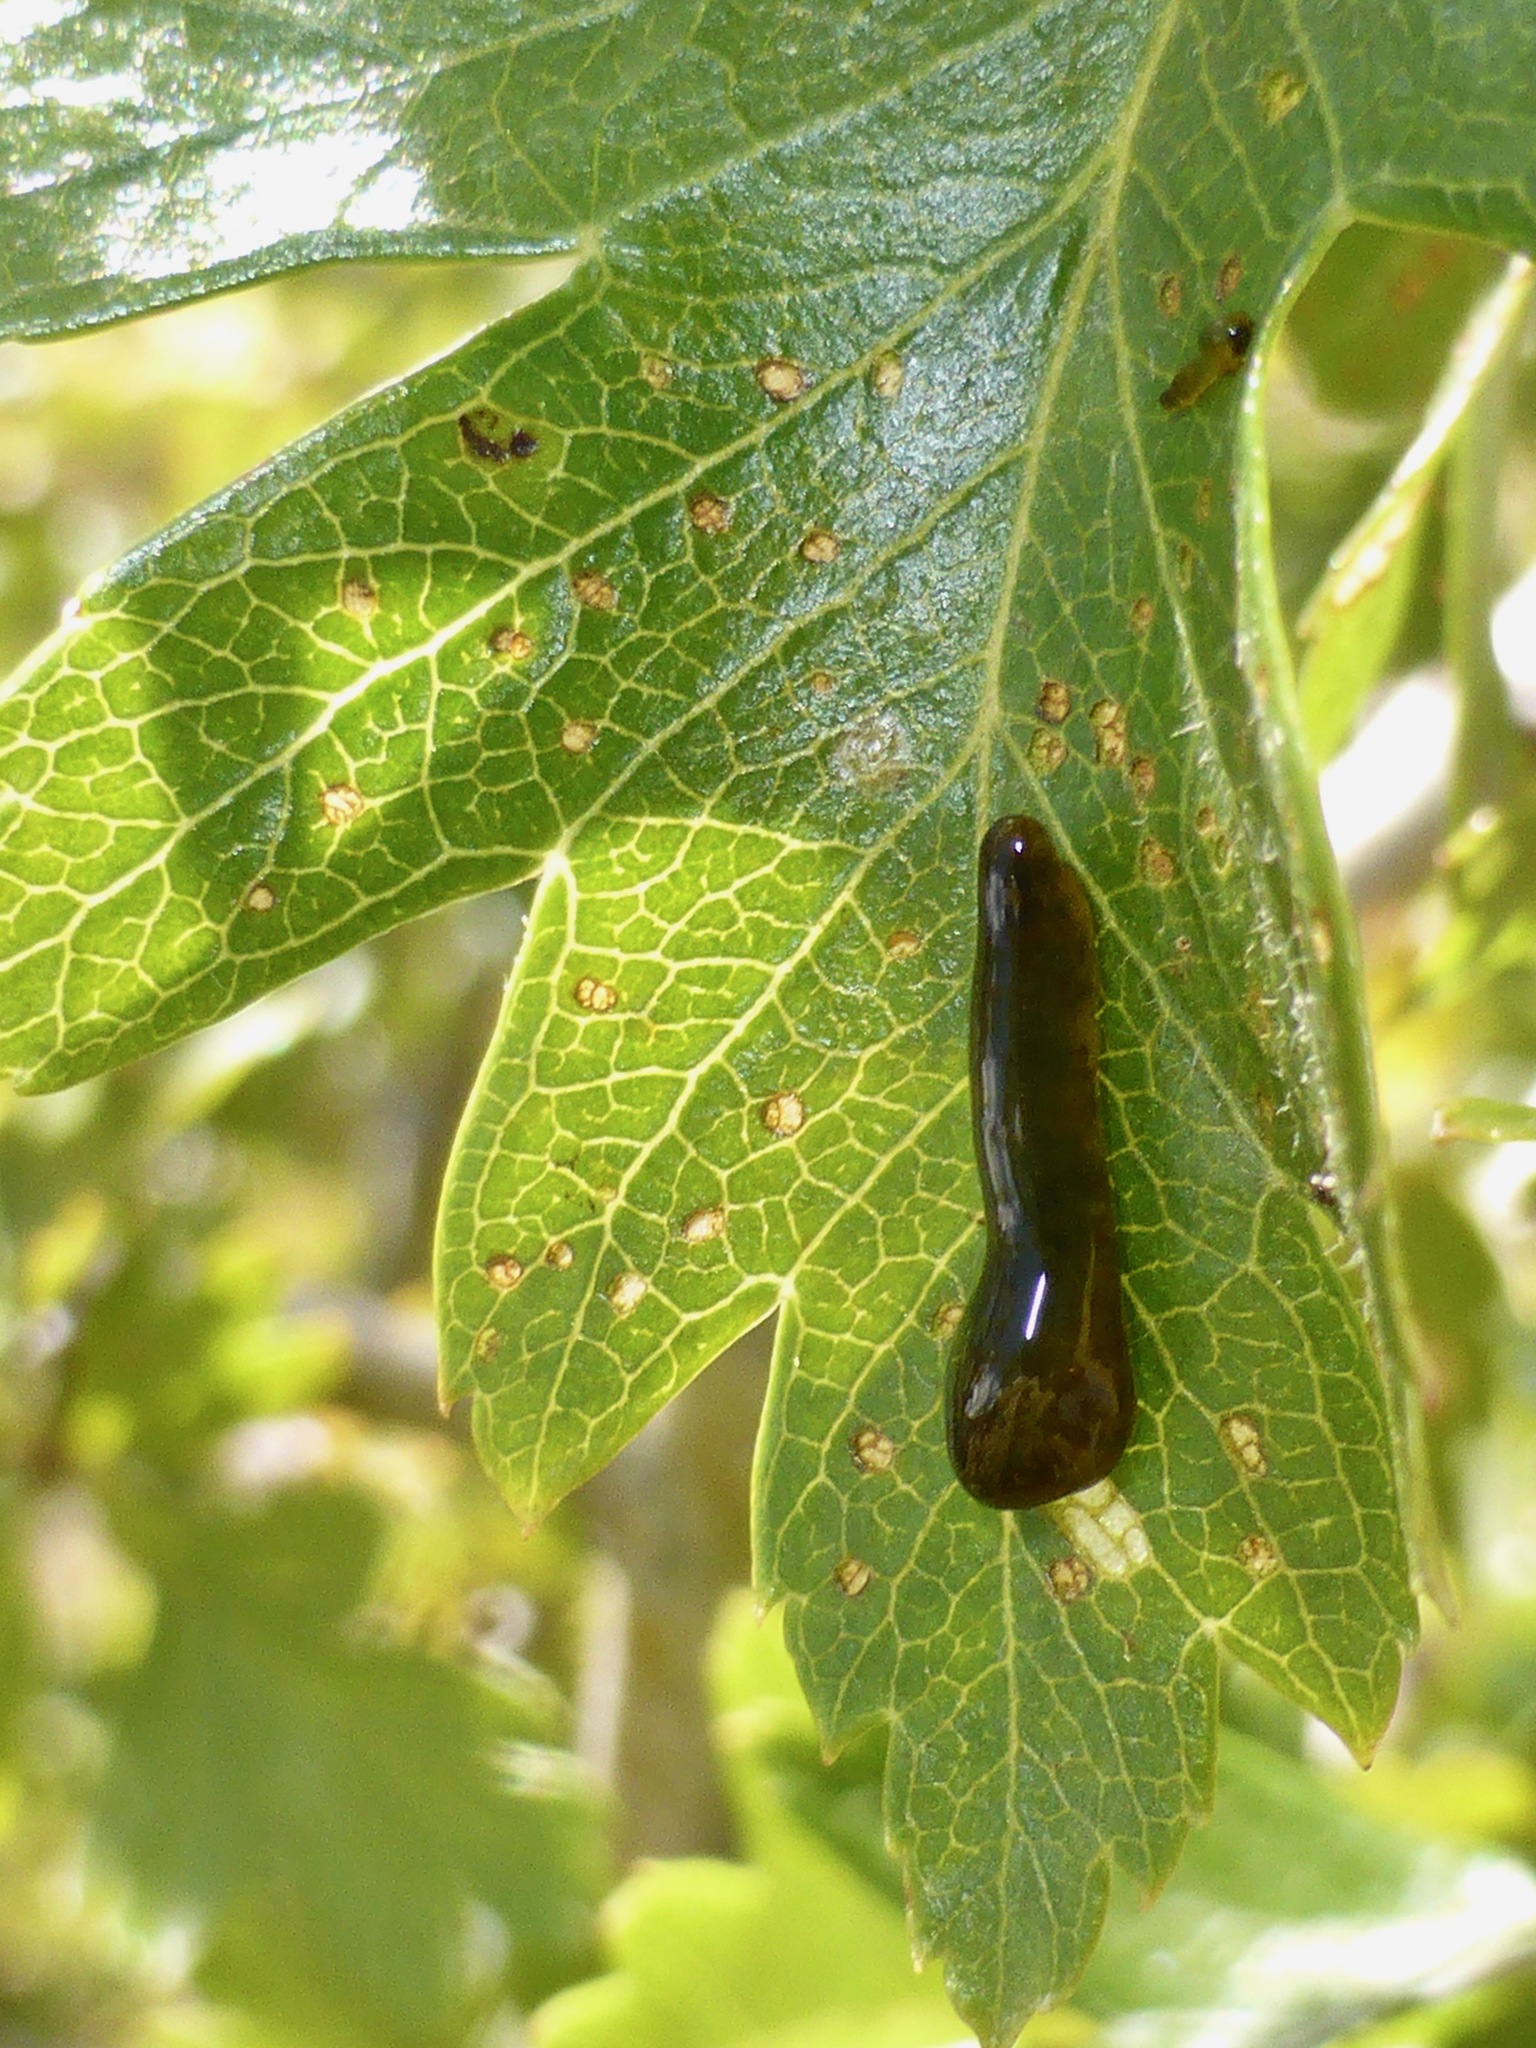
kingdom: Animalia
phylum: Arthropoda
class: Insecta
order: Hymenoptera
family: Tenthredinidae
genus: Caliroa
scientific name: Caliroa cerasi
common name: Pear sawfly
